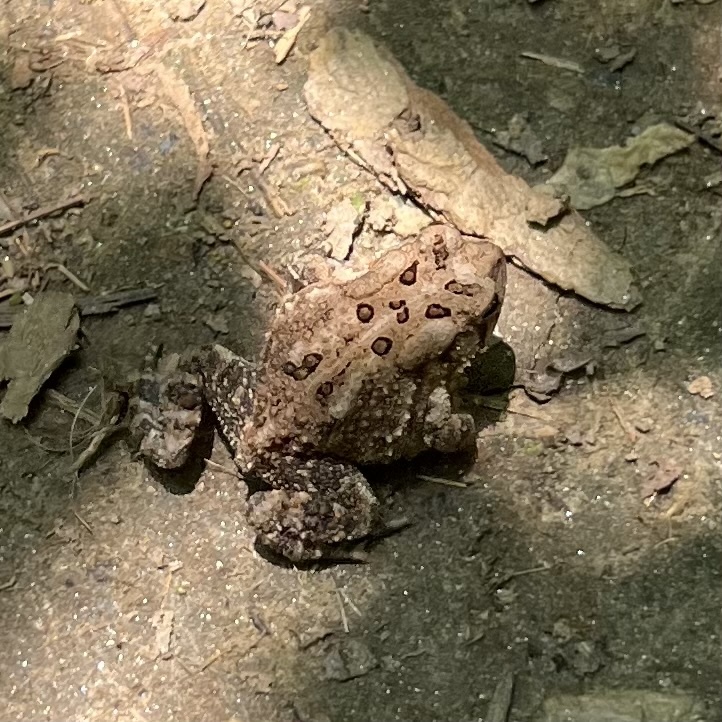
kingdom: Animalia
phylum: Chordata
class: Amphibia
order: Anura
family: Bufonidae
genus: Anaxyrus
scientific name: Anaxyrus americanus
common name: American toad
